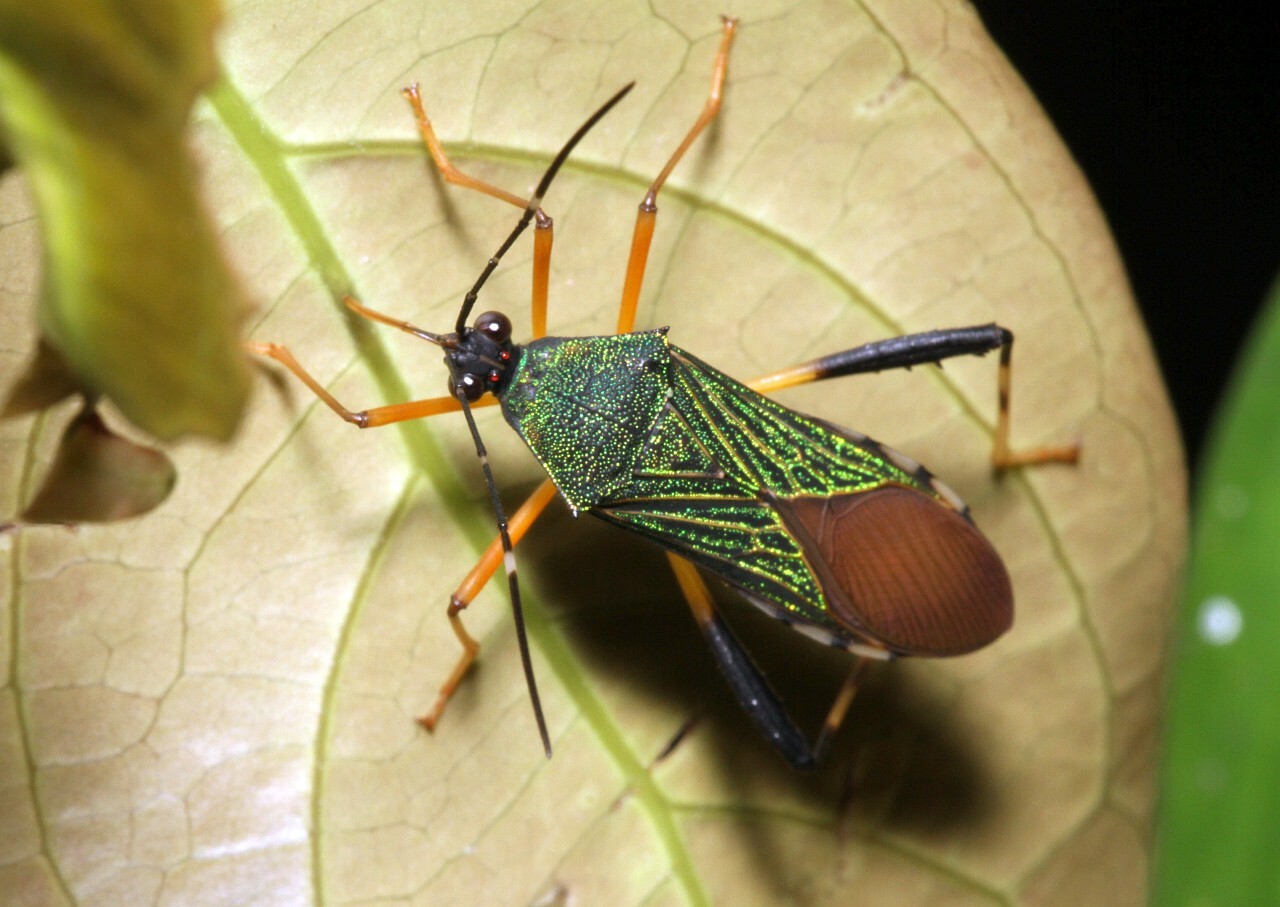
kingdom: Animalia
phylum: Arthropoda
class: Insecta
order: Hemiptera
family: Coreidae
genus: Petalops
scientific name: Petalops azureus
